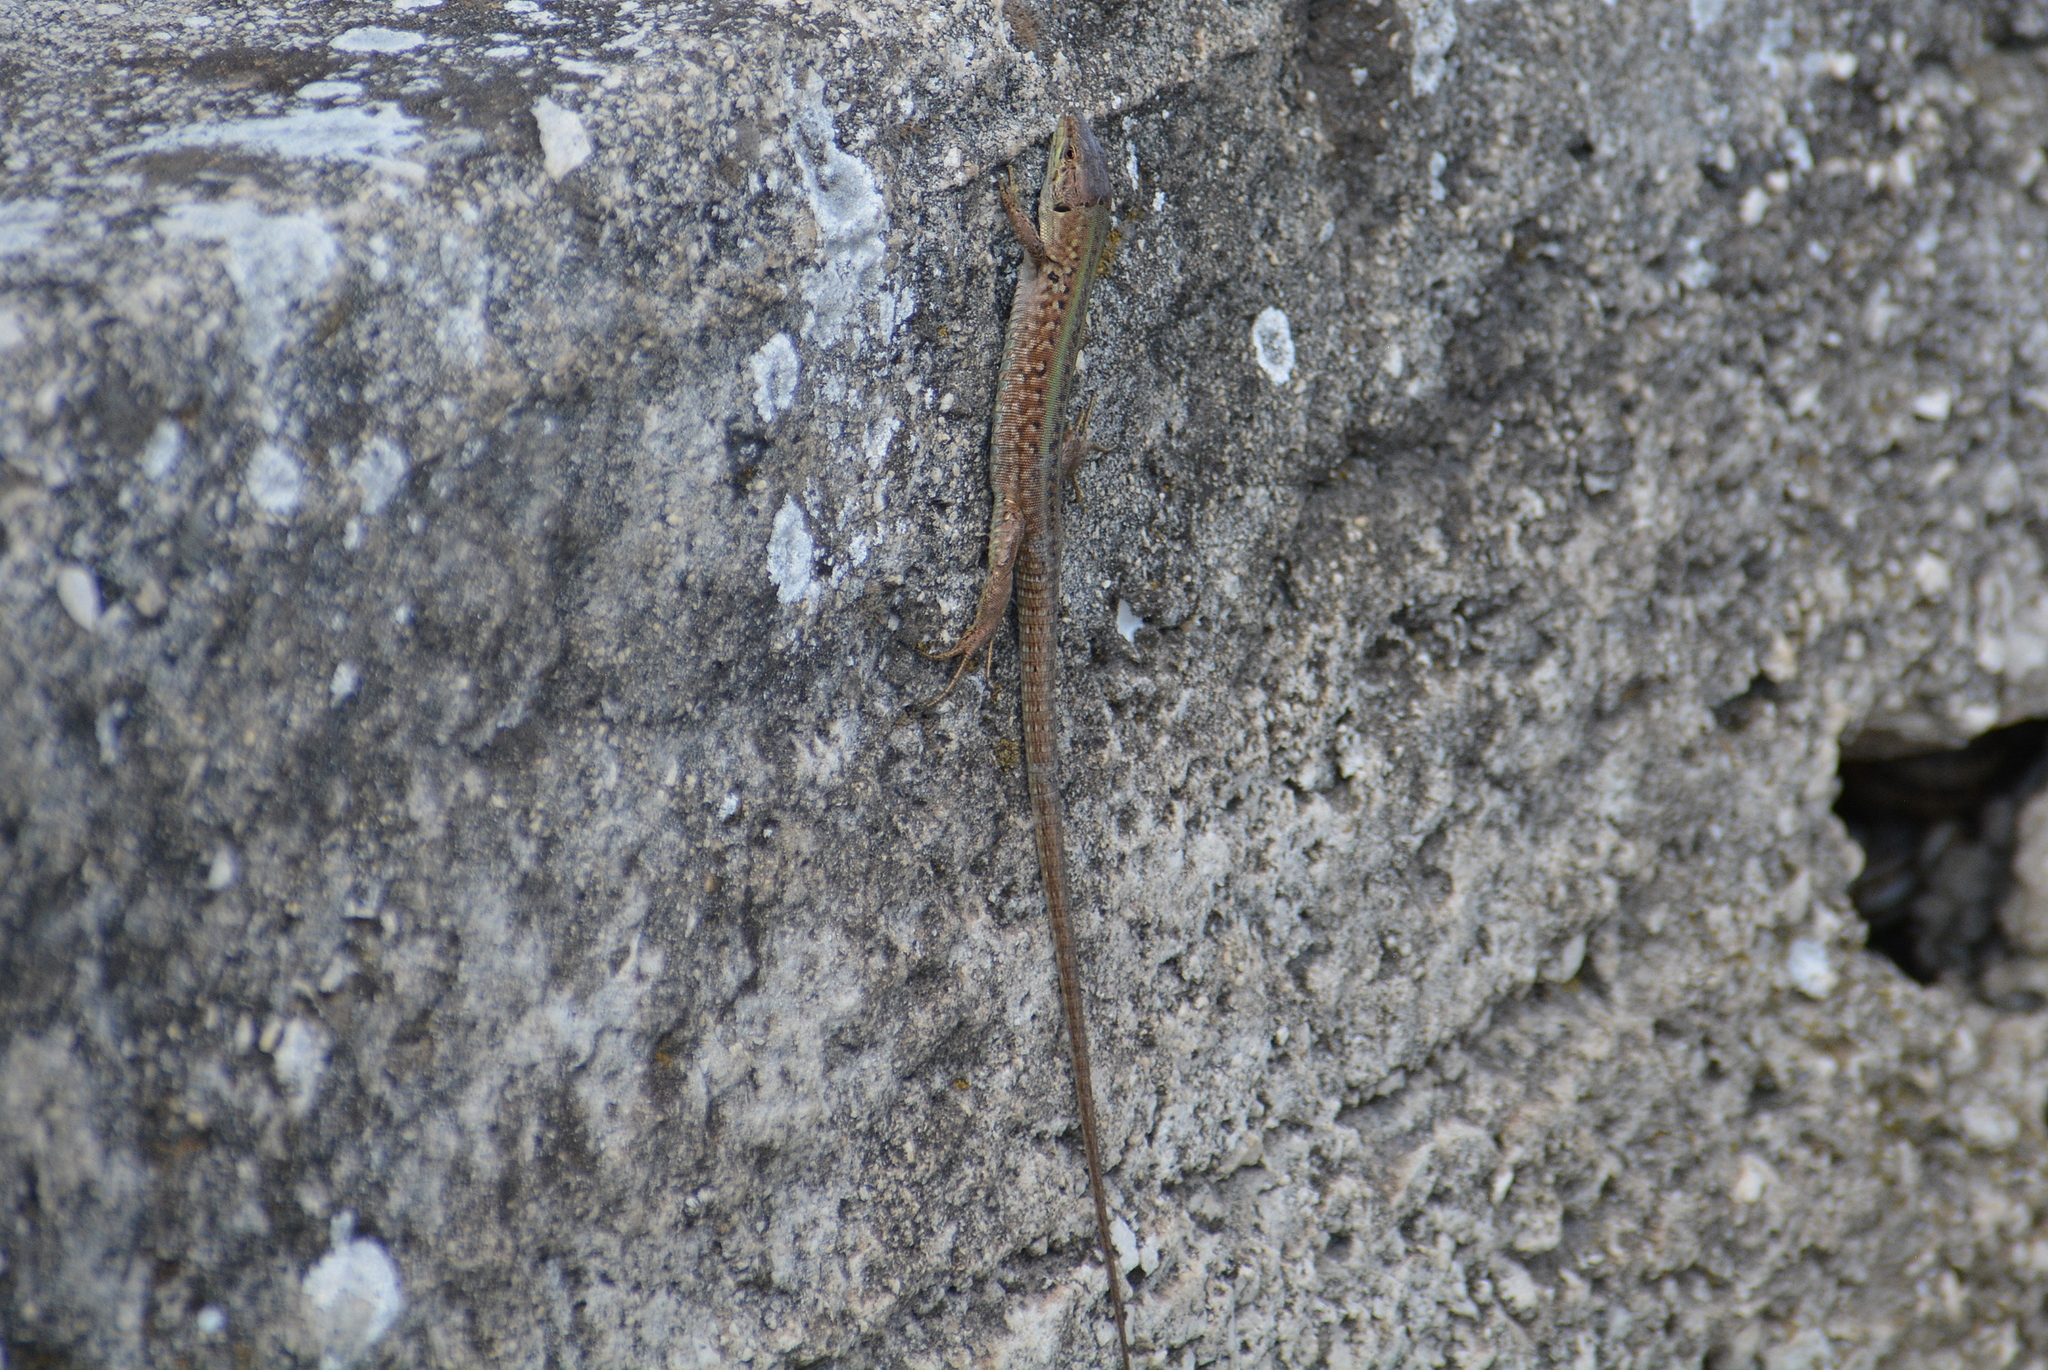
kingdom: Animalia
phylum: Chordata
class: Squamata
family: Lacertidae
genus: Podarcis
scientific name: Podarcis siculus
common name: Italian wall lizard
